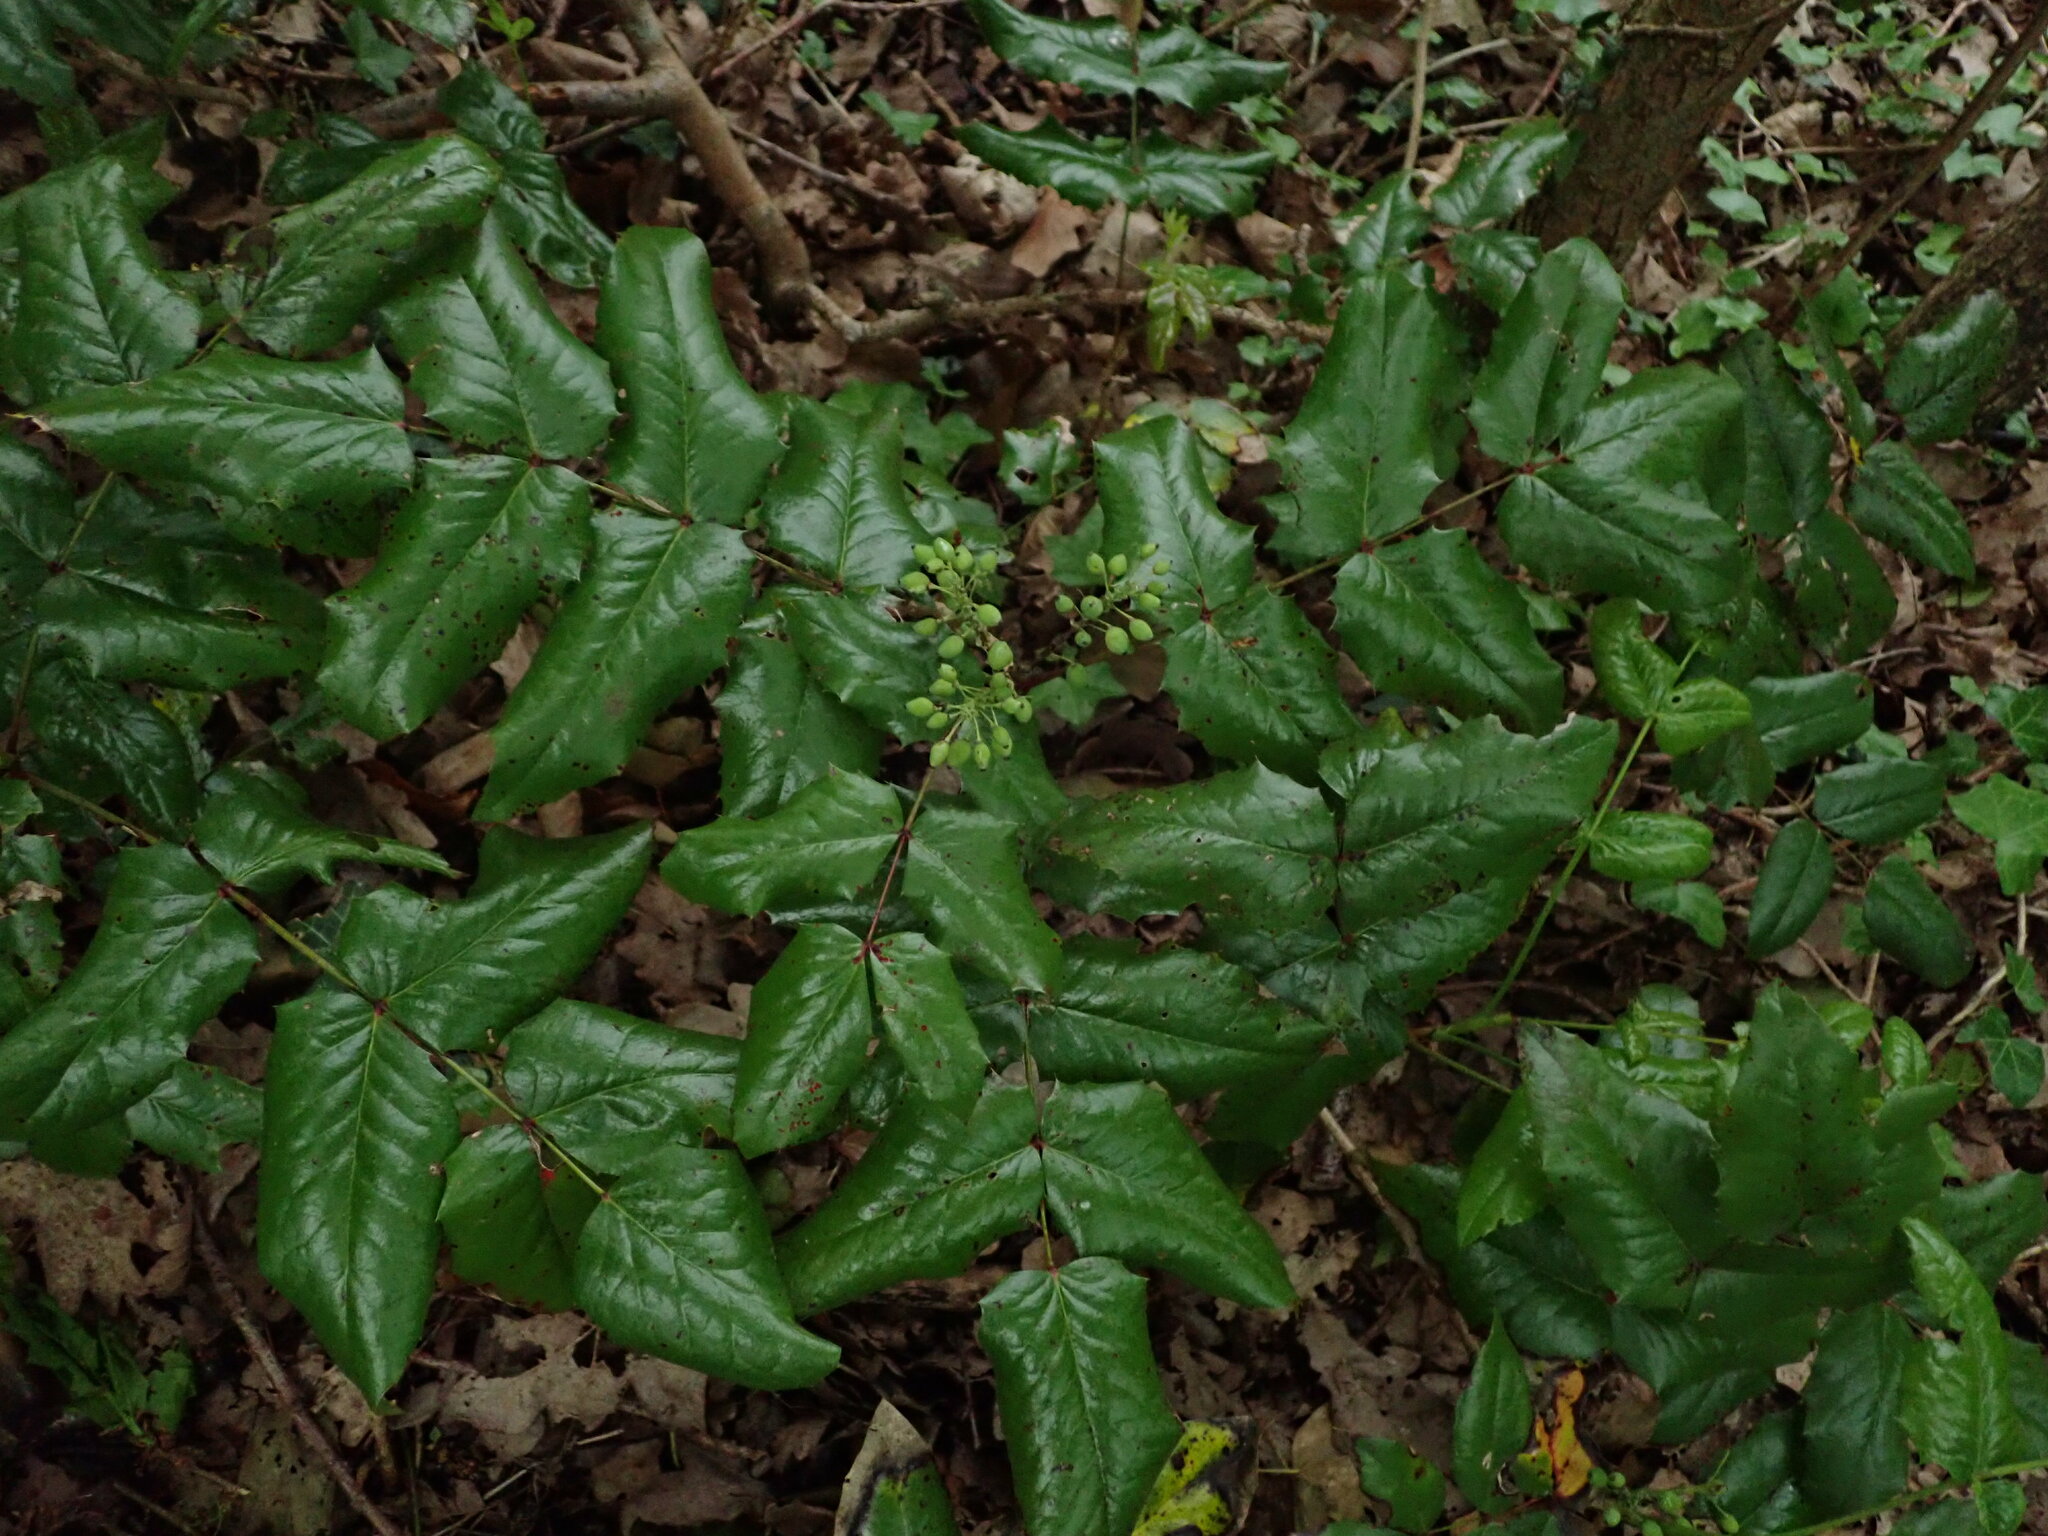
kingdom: Plantae
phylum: Tracheophyta
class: Magnoliopsida
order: Ranunculales
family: Berberidaceae
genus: Mahonia
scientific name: Mahonia aquifolium
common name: Oregon-grape
